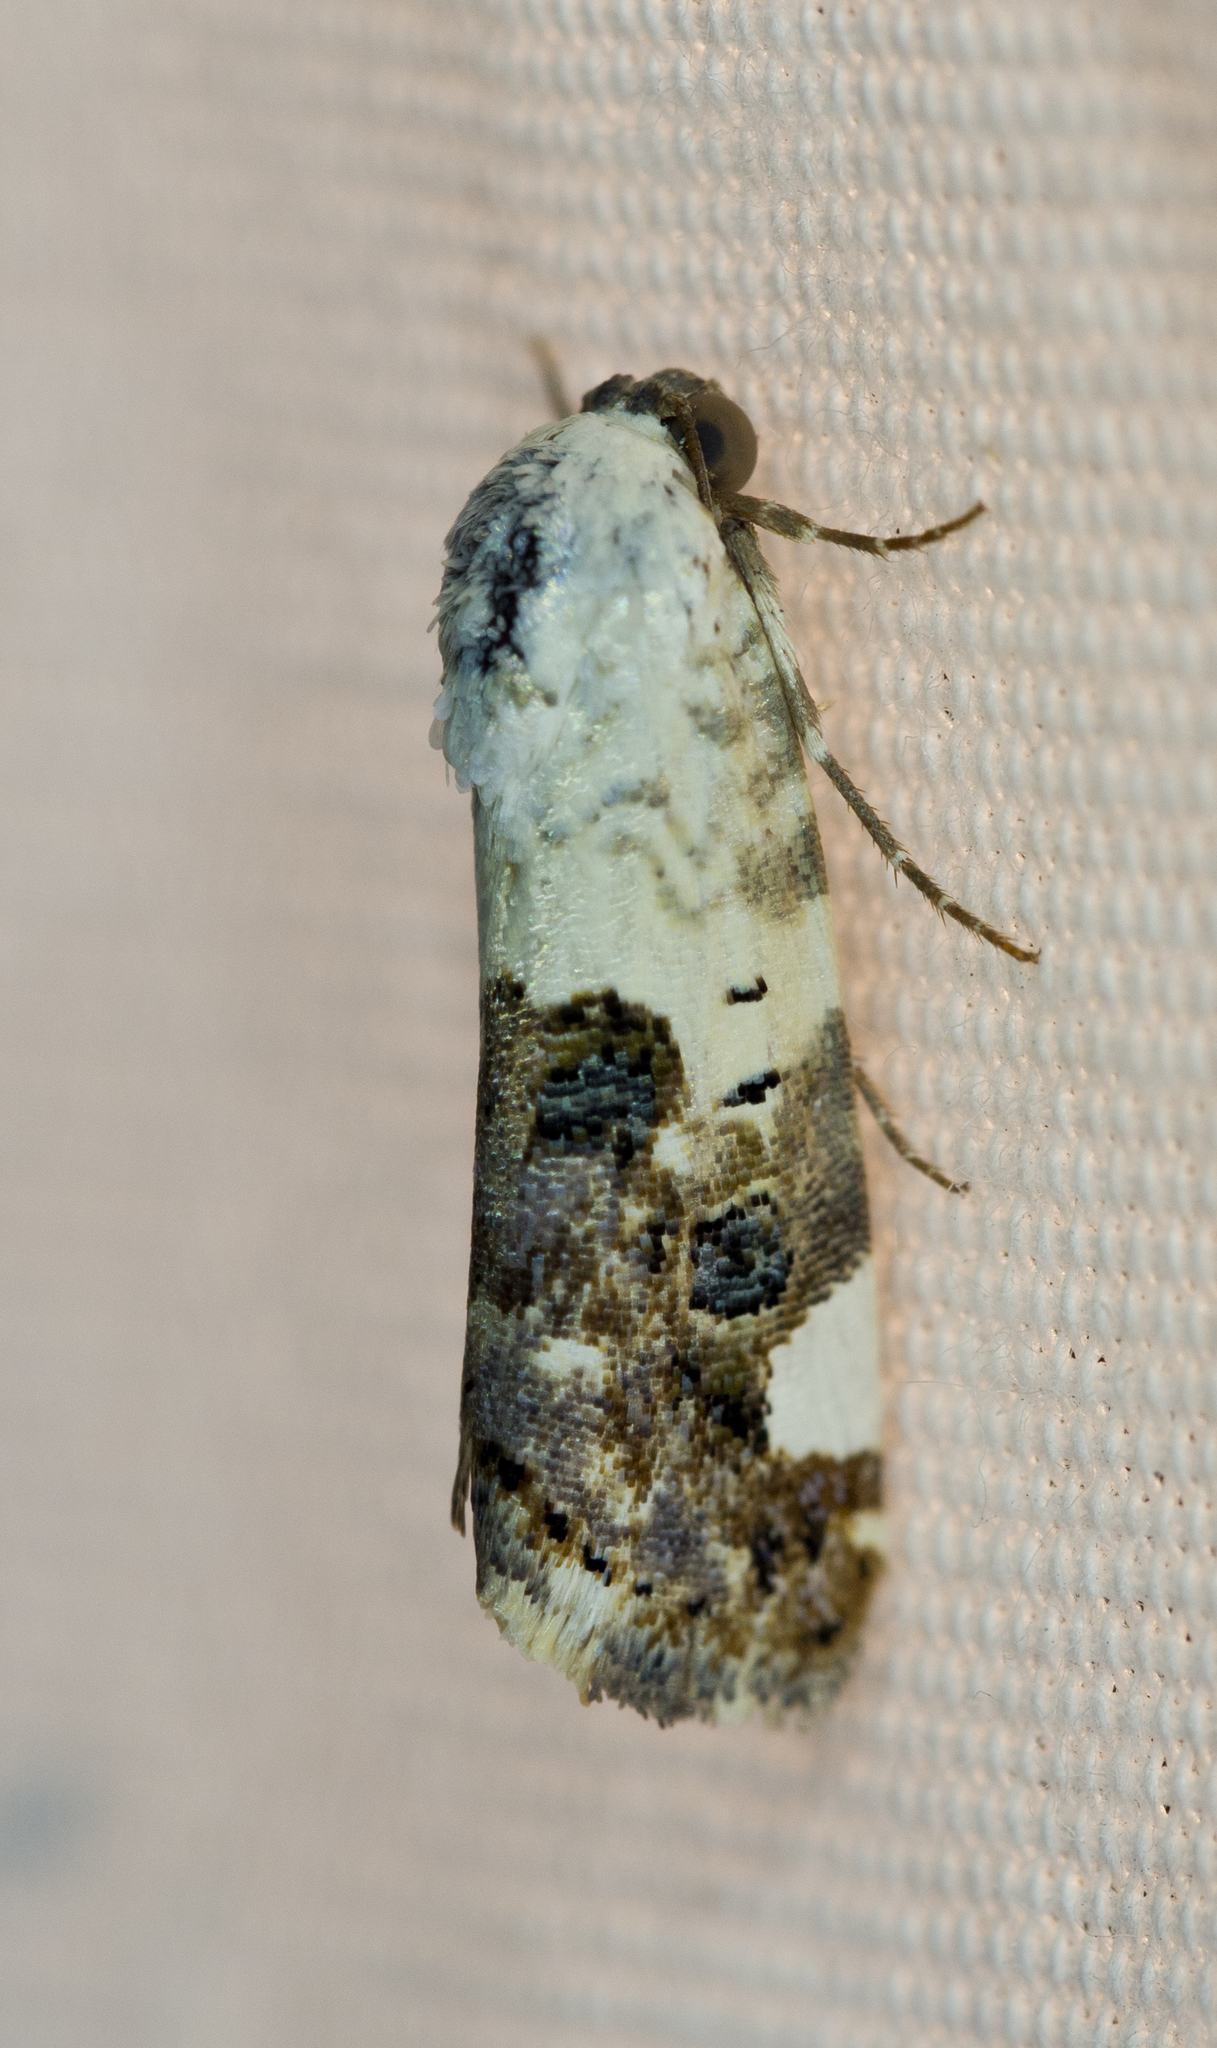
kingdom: Animalia
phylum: Arthropoda
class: Insecta
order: Lepidoptera
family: Noctuidae
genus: Acontia
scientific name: Acontia areli
